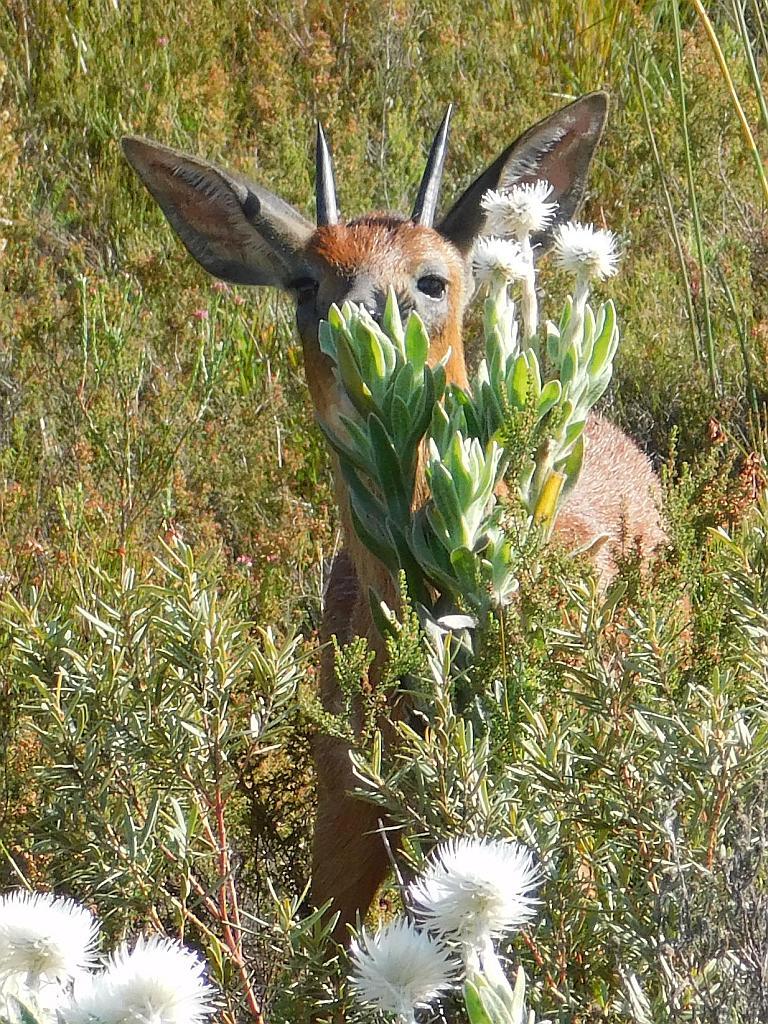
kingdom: Animalia
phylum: Chordata
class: Mammalia
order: Artiodactyla
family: Bovidae
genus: Raphicerus
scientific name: Raphicerus melanotis
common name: Cape grysbok
